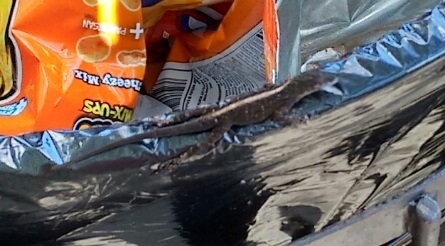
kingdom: Animalia
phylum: Chordata
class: Squamata
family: Dactyloidae
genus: Anolis
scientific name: Anolis sagrei
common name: Brown anole
